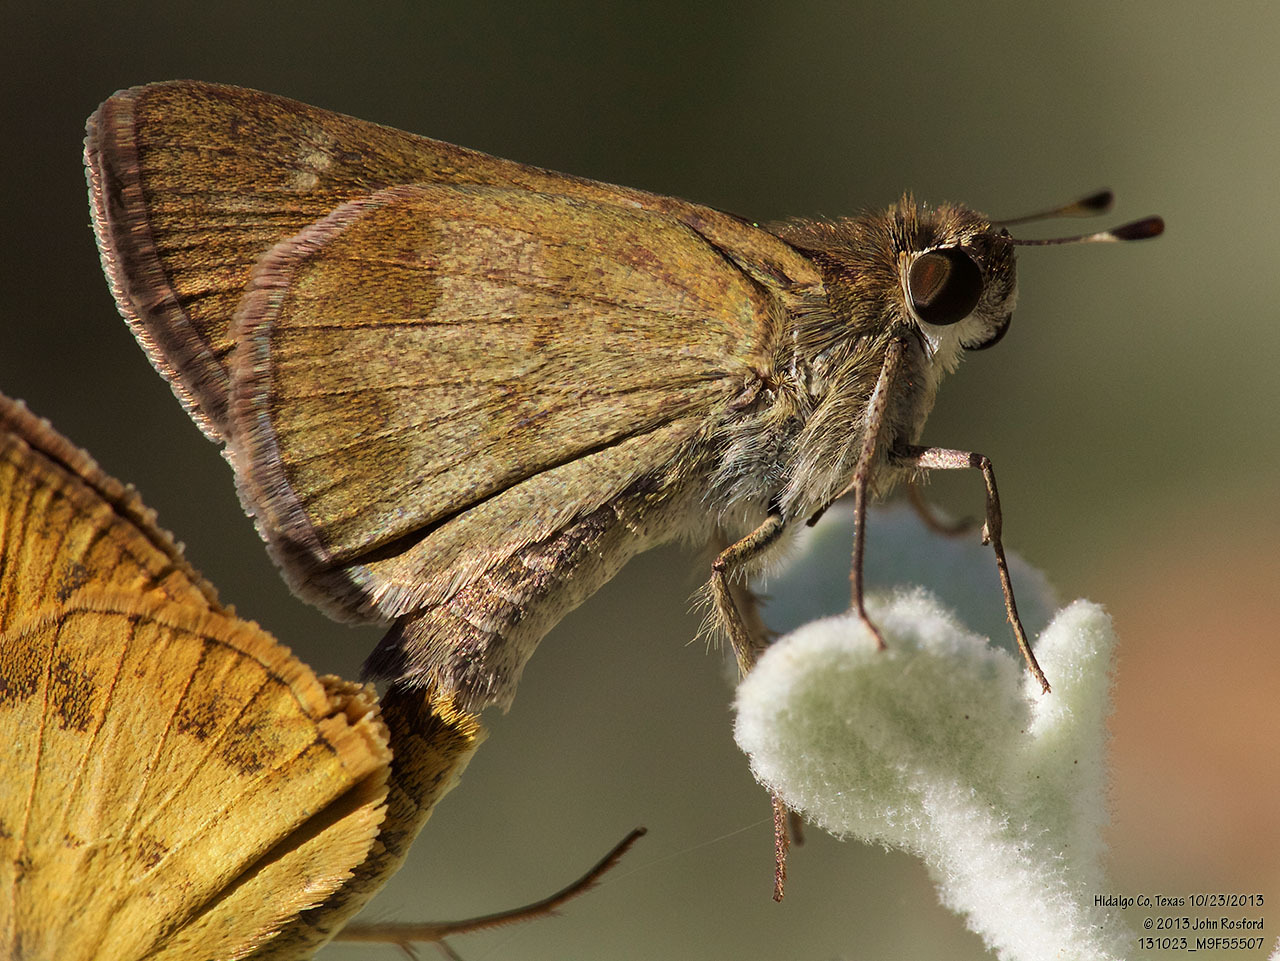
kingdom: Animalia
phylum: Arthropoda
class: Insecta
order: Lepidoptera
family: Hesperiidae
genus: Polites
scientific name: Polites vibex
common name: Whirlabout
